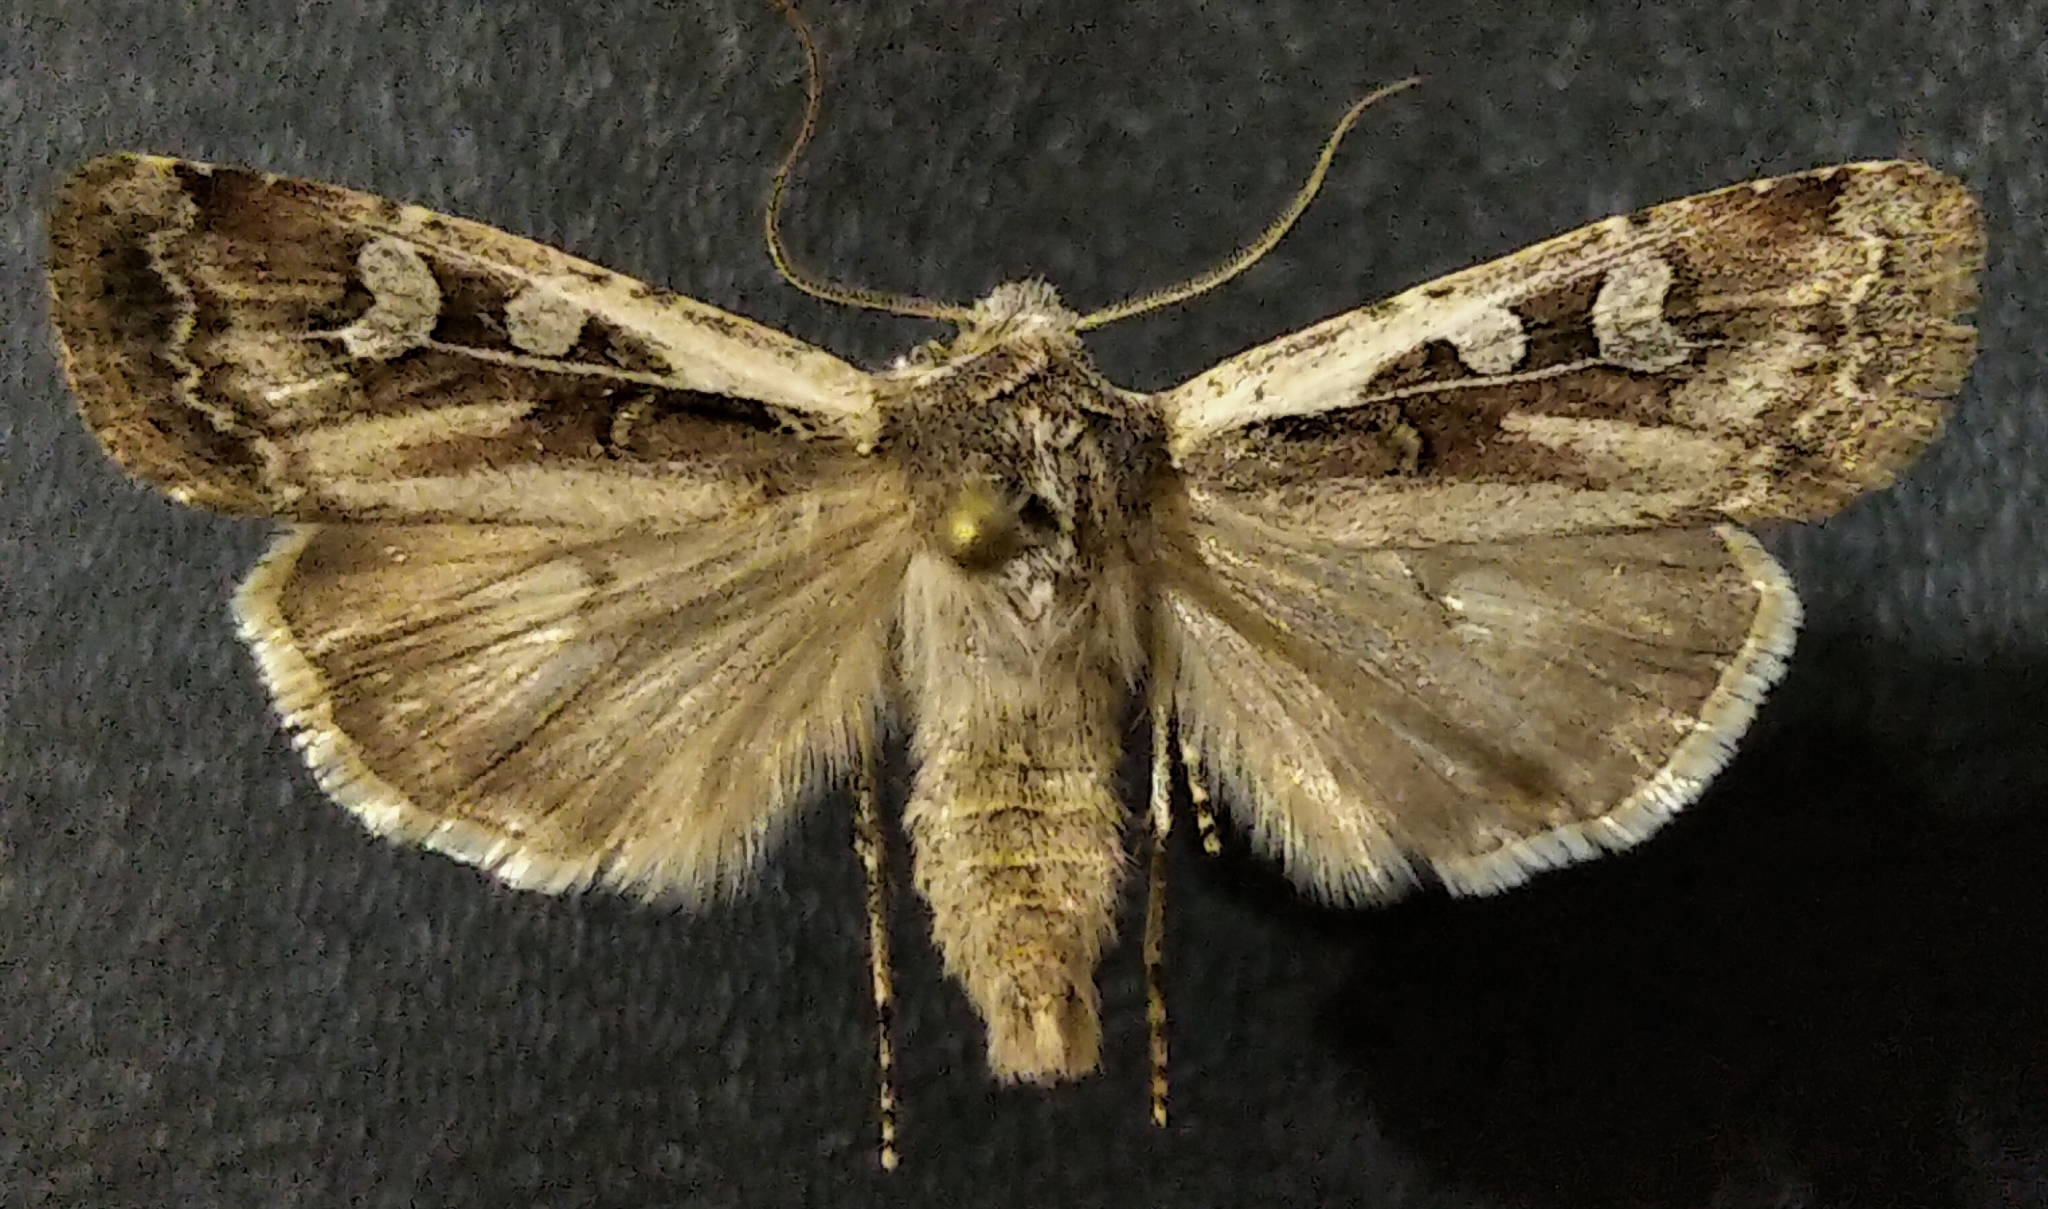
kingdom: Animalia
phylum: Arthropoda
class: Insecta
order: Lepidoptera
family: Noctuidae
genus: Euxoa
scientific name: Euxoa perexcellens
